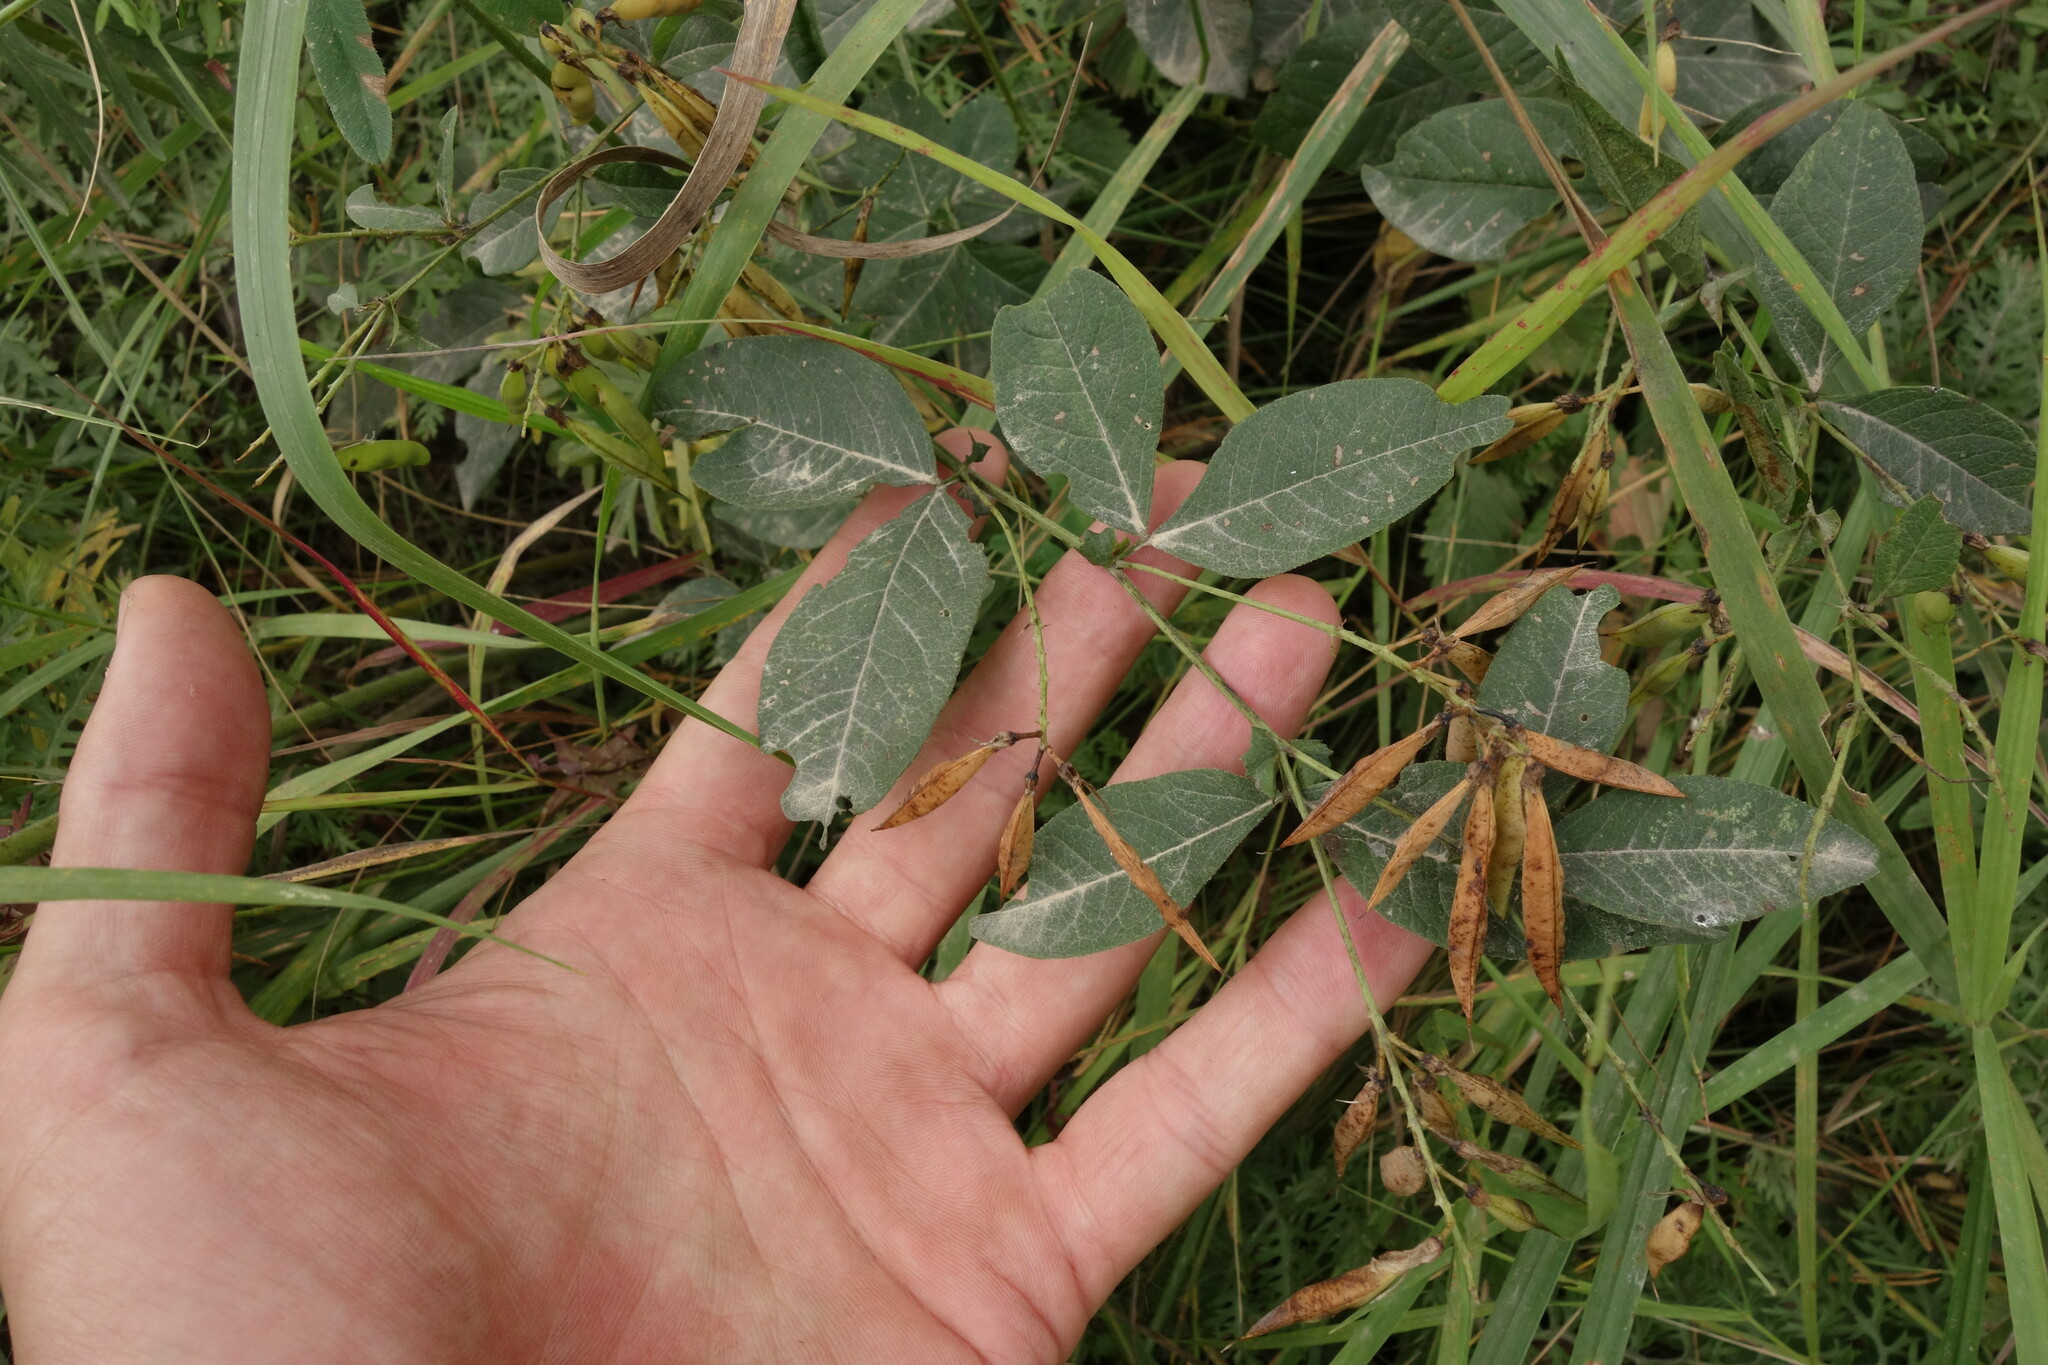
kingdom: Plantae
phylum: Tracheophyta
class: Magnoliopsida
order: Fabales
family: Fabaceae
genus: Vicia
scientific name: Vicia unijuga
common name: Two-leaf vetch
